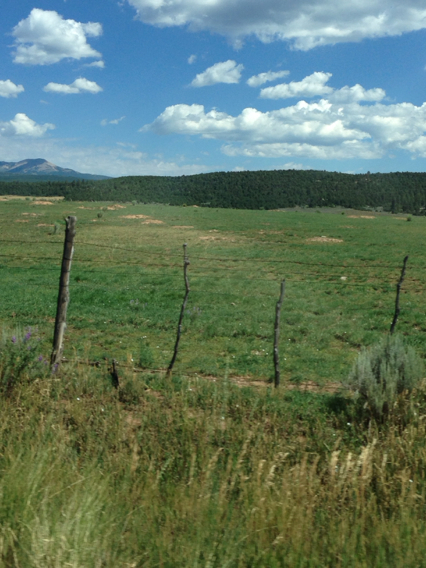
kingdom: Animalia
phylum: Chordata
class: Mammalia
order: Rodentia
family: Sciuridae
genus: Cynomys
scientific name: Cynomys gunnisoni
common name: Gunnison's prairie dog
